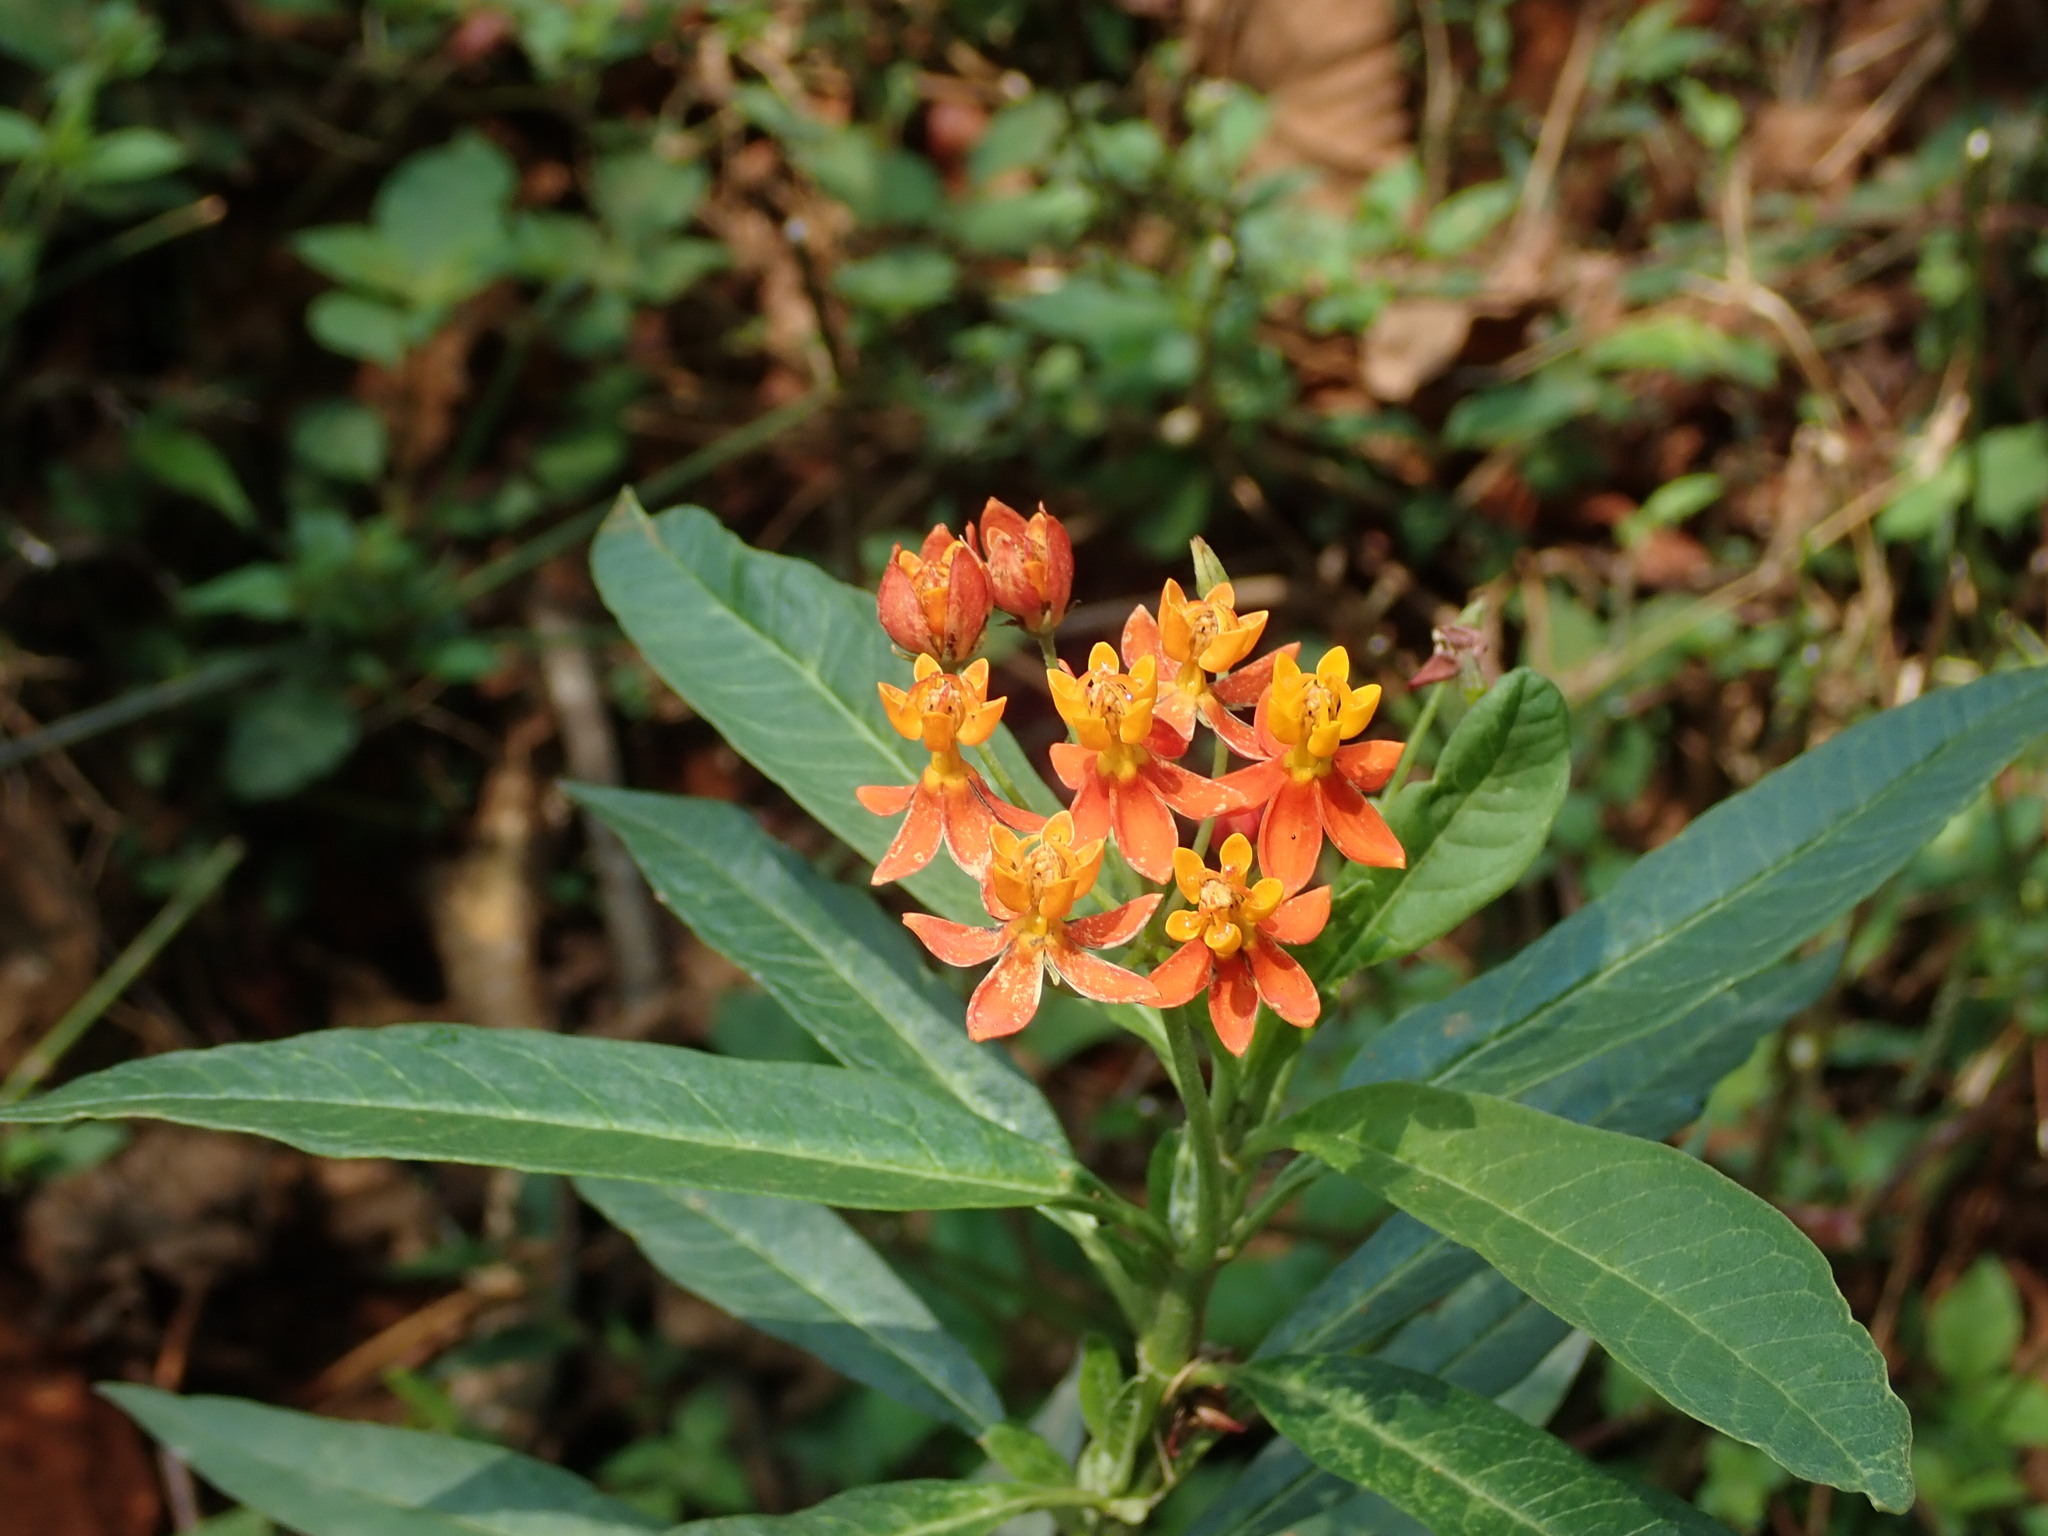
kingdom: Plantae
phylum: Tracheophyta
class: Magnoliopsida
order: Gentianales
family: Apocynaceae
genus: Asclepias
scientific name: Asclepias curassavica
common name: Bloodflower
